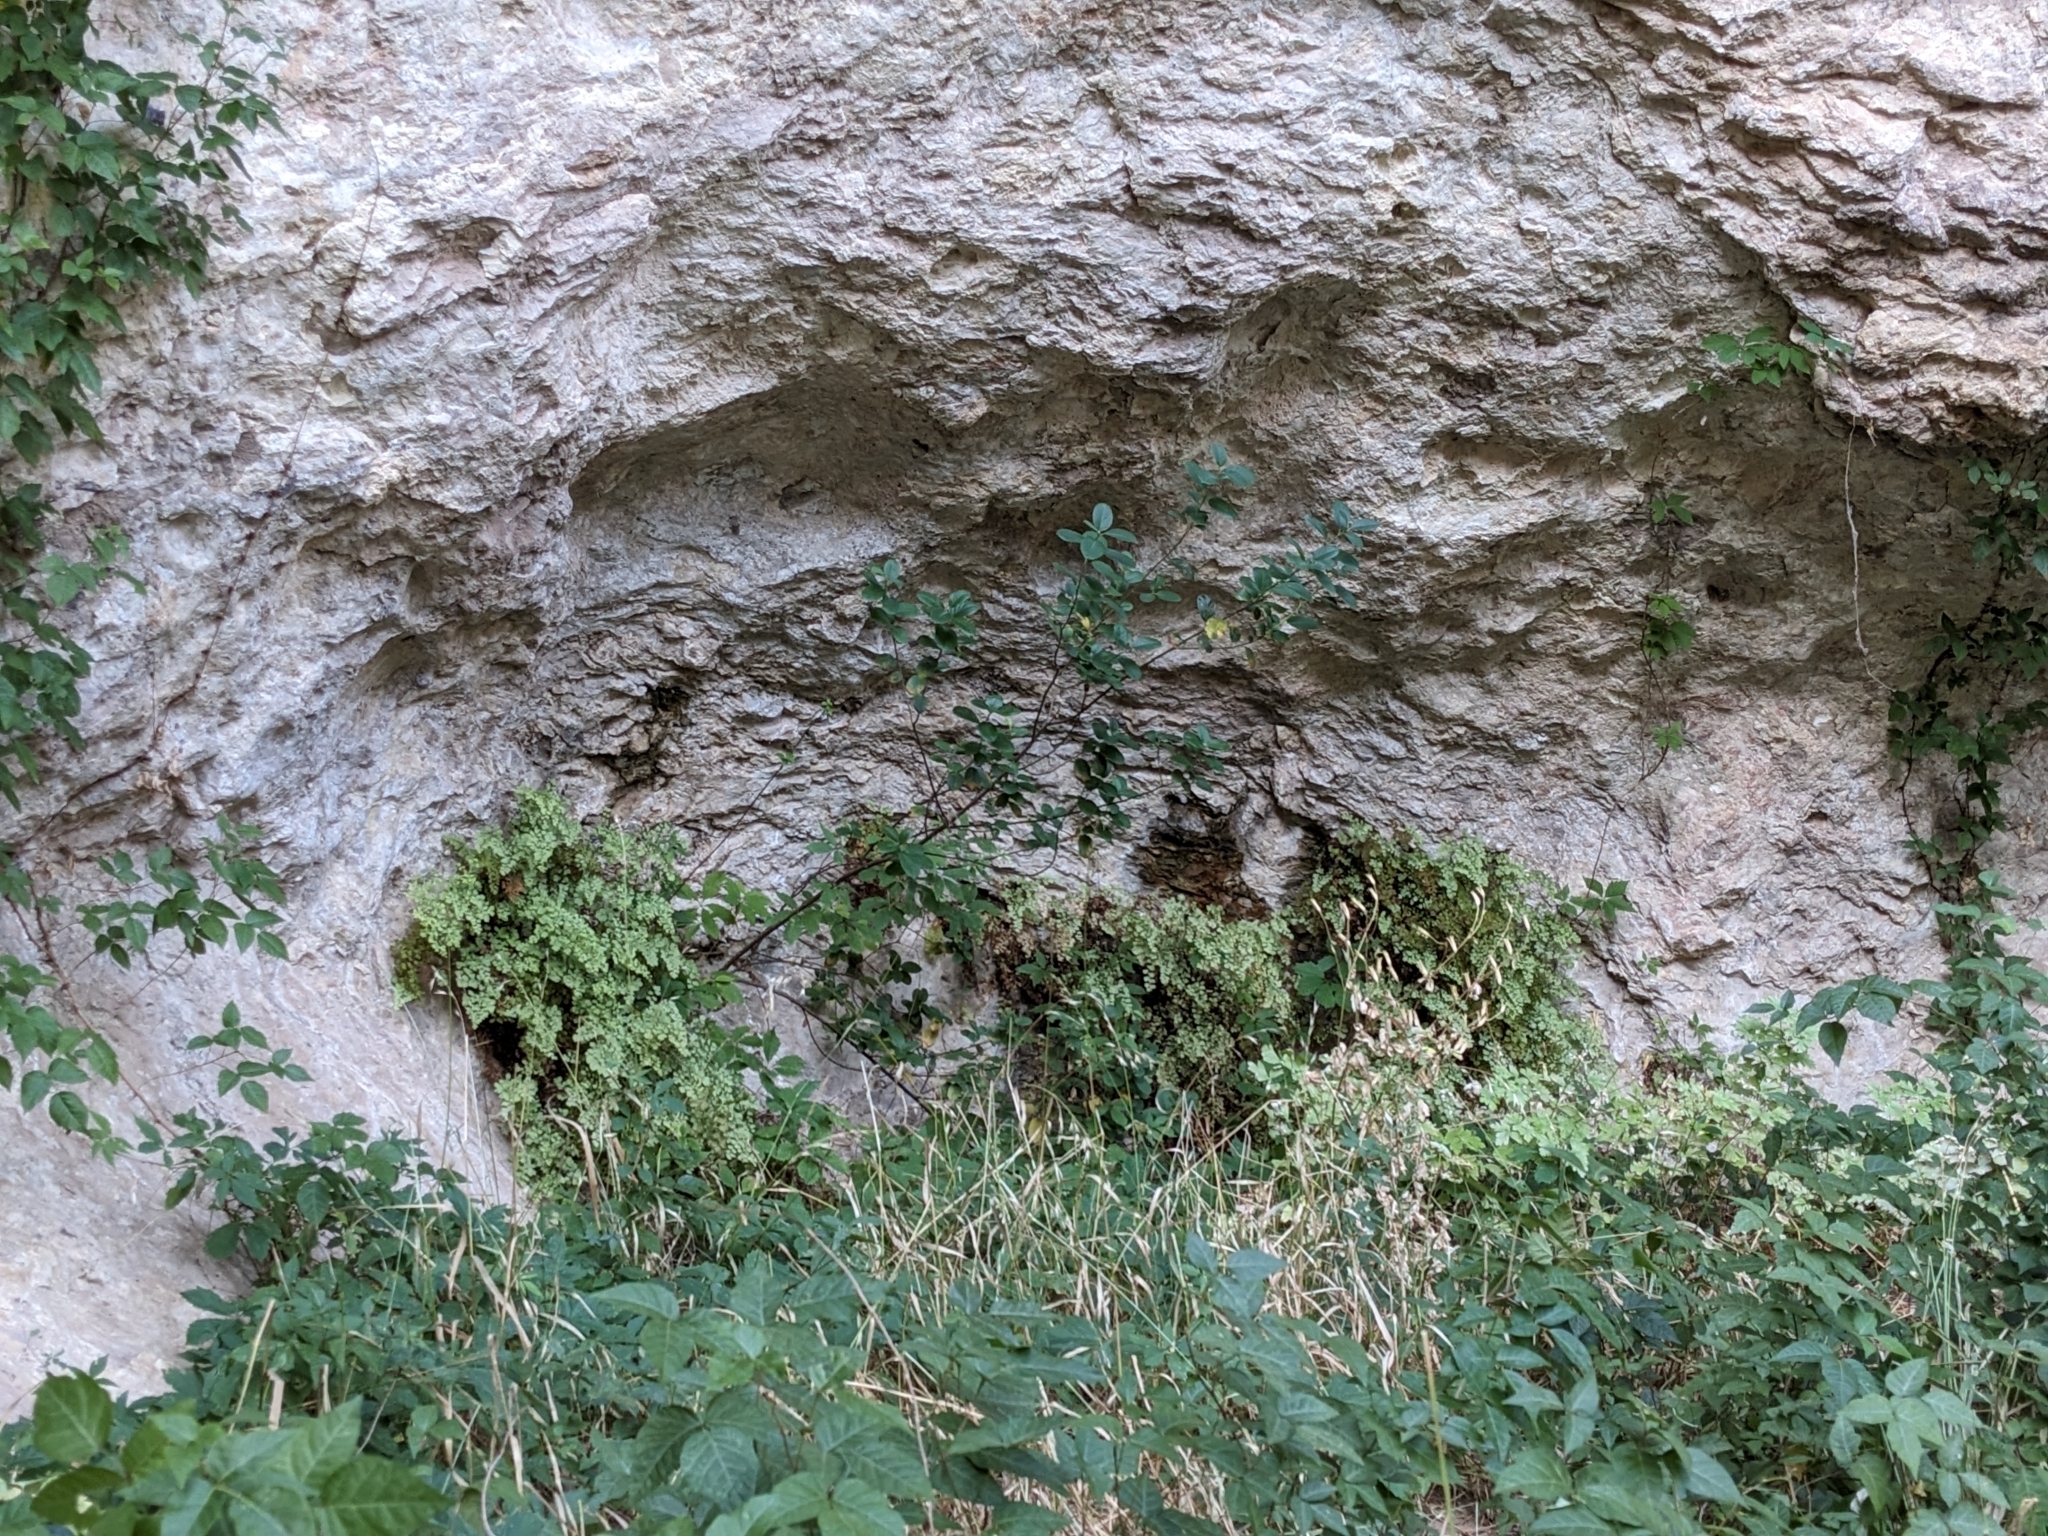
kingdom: Plantae
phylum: Tracheophyta
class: Polypodiopsida
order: Polypodiales
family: Pteridaceae
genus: Adiantum
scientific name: Adiantum capillus-veneris
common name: Maidenhair fern
